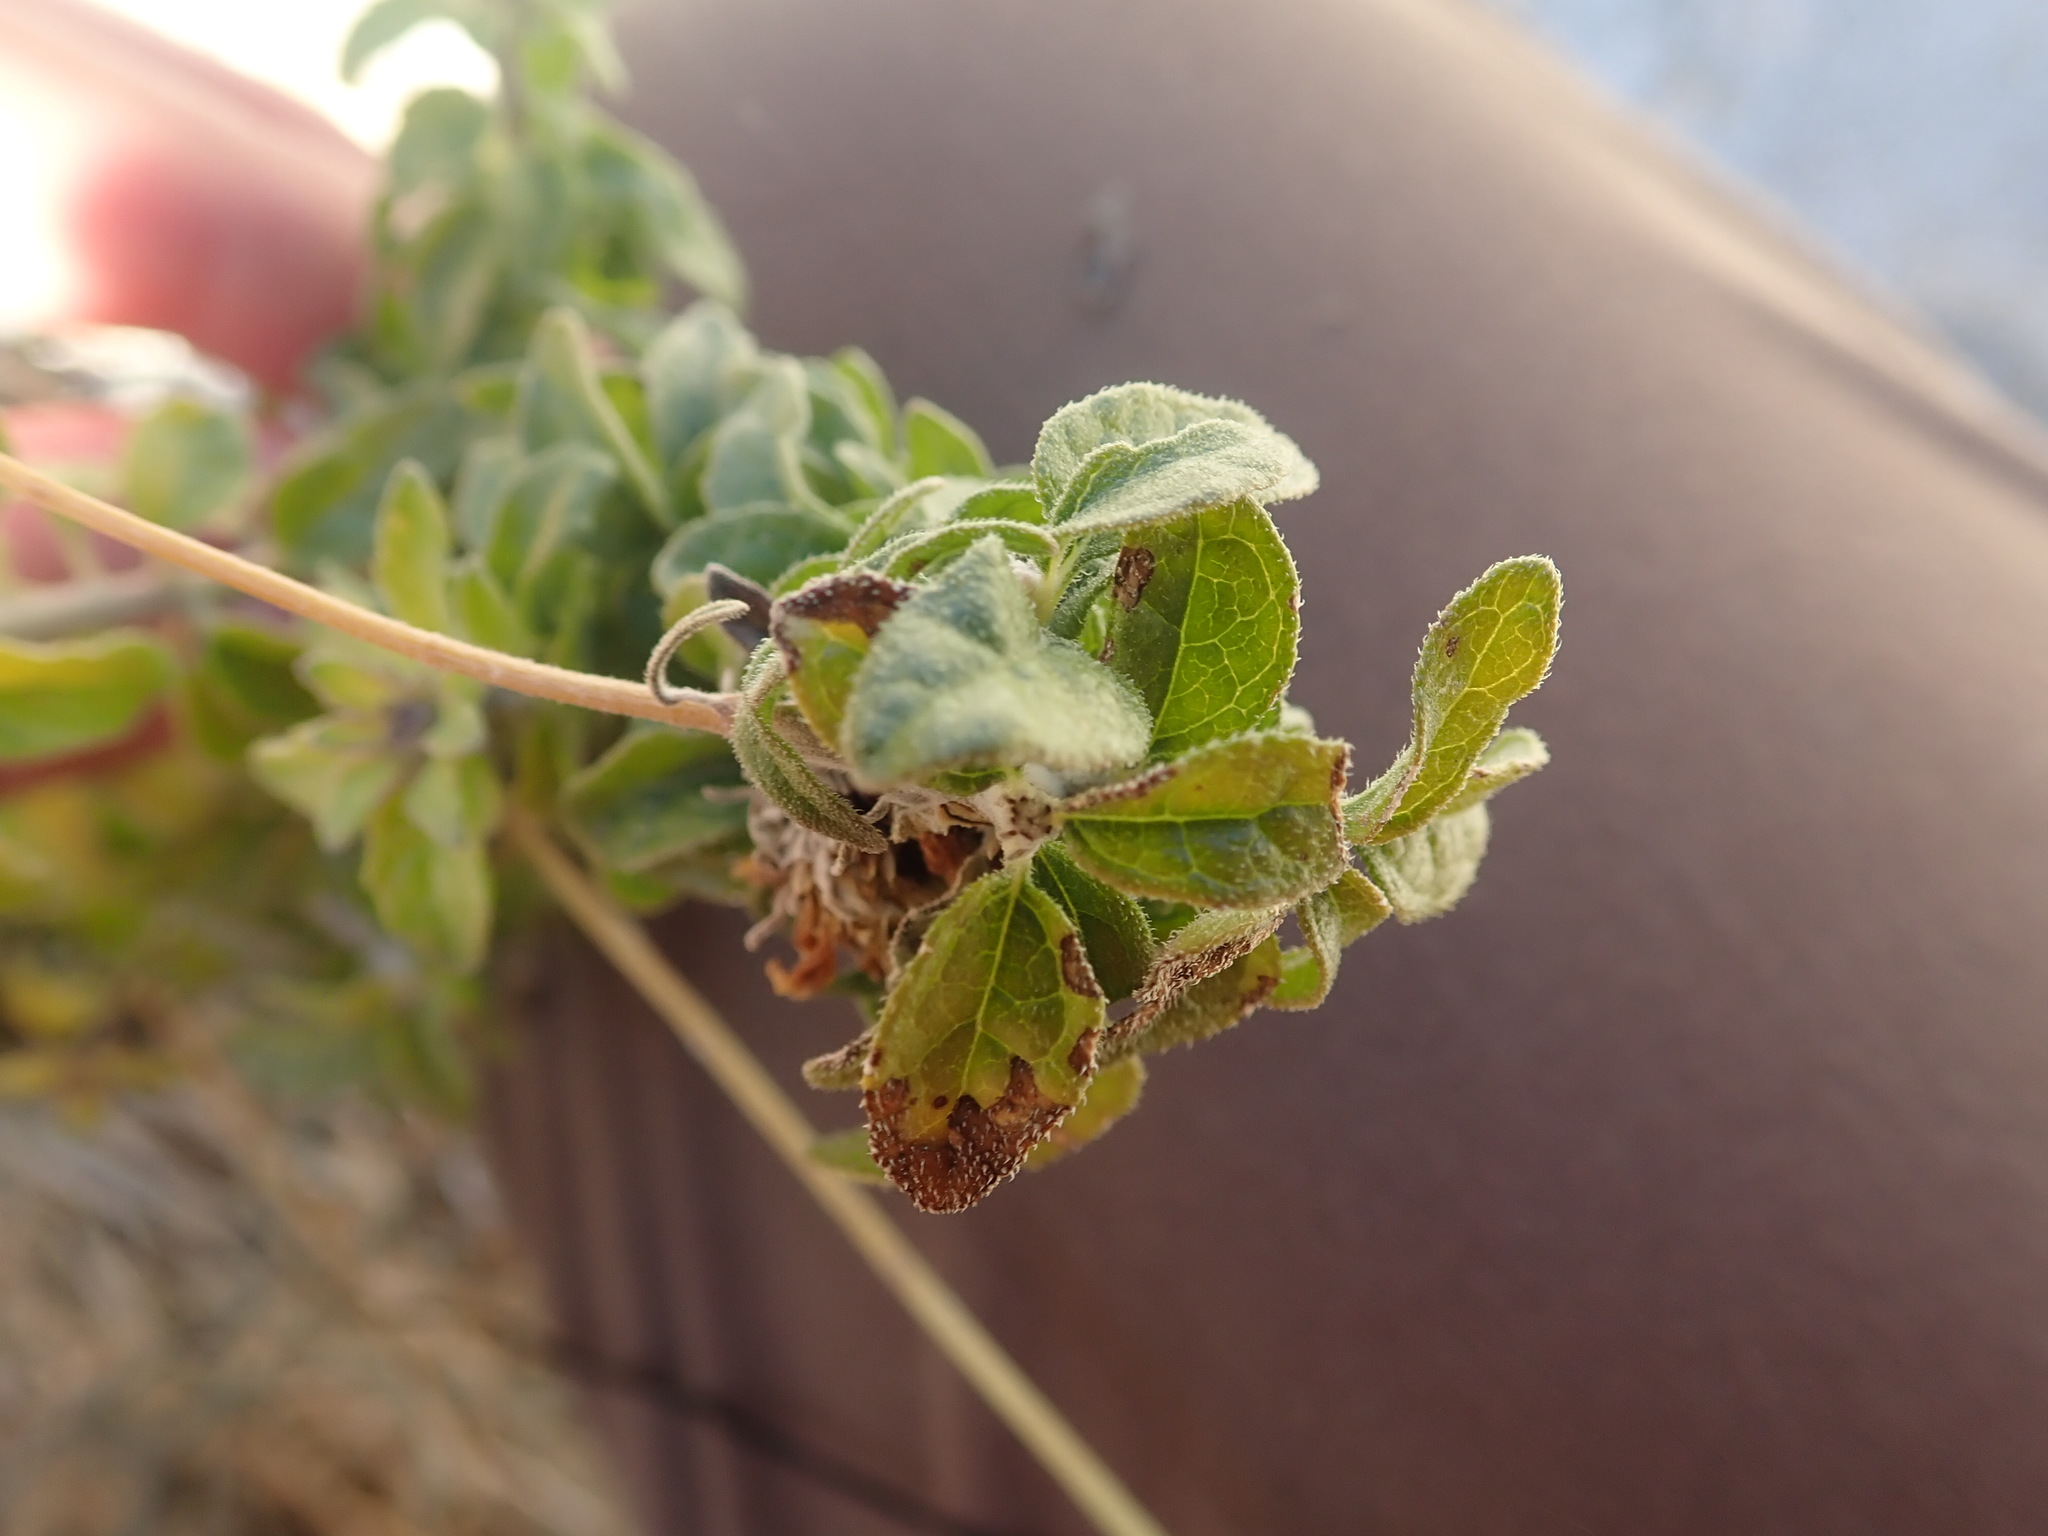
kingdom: Plantae
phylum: Tracheophyta
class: Magnoliopsida
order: Asterales
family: Asteraceae
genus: Bahiopsis
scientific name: Bahiopsis parishii
